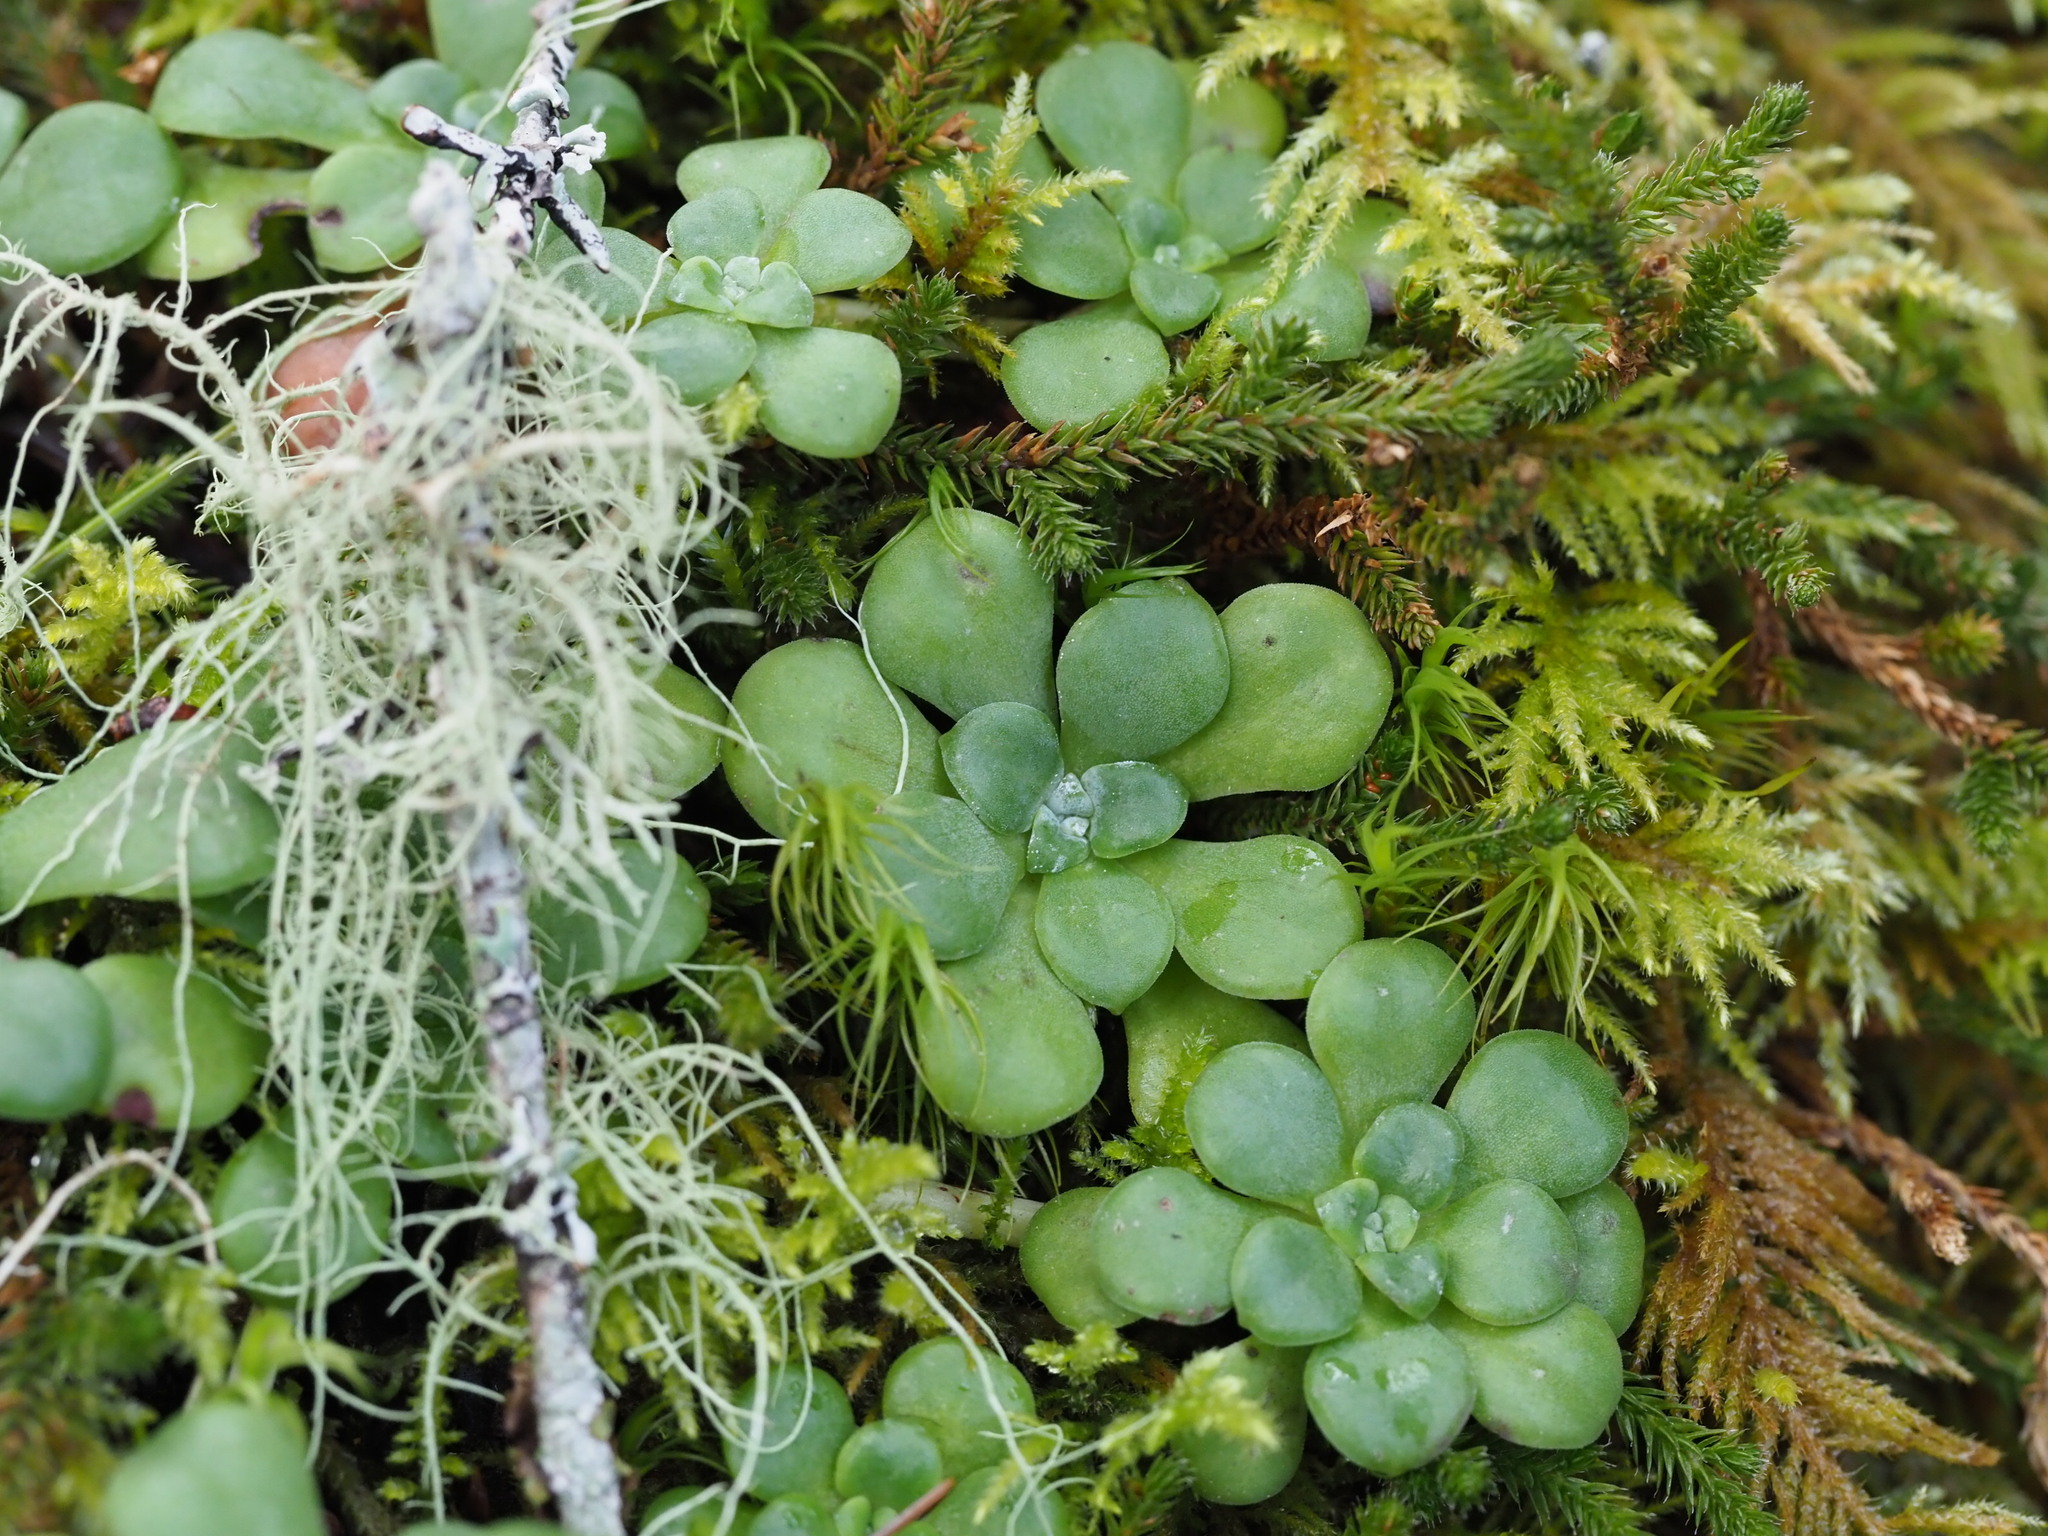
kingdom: Plantae
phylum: Tracheophyta
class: Magnoliopsida
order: Saxifragales
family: Crassulaceae
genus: Sedum
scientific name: Sedum spathulifolium
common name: Colorado stonecrop
